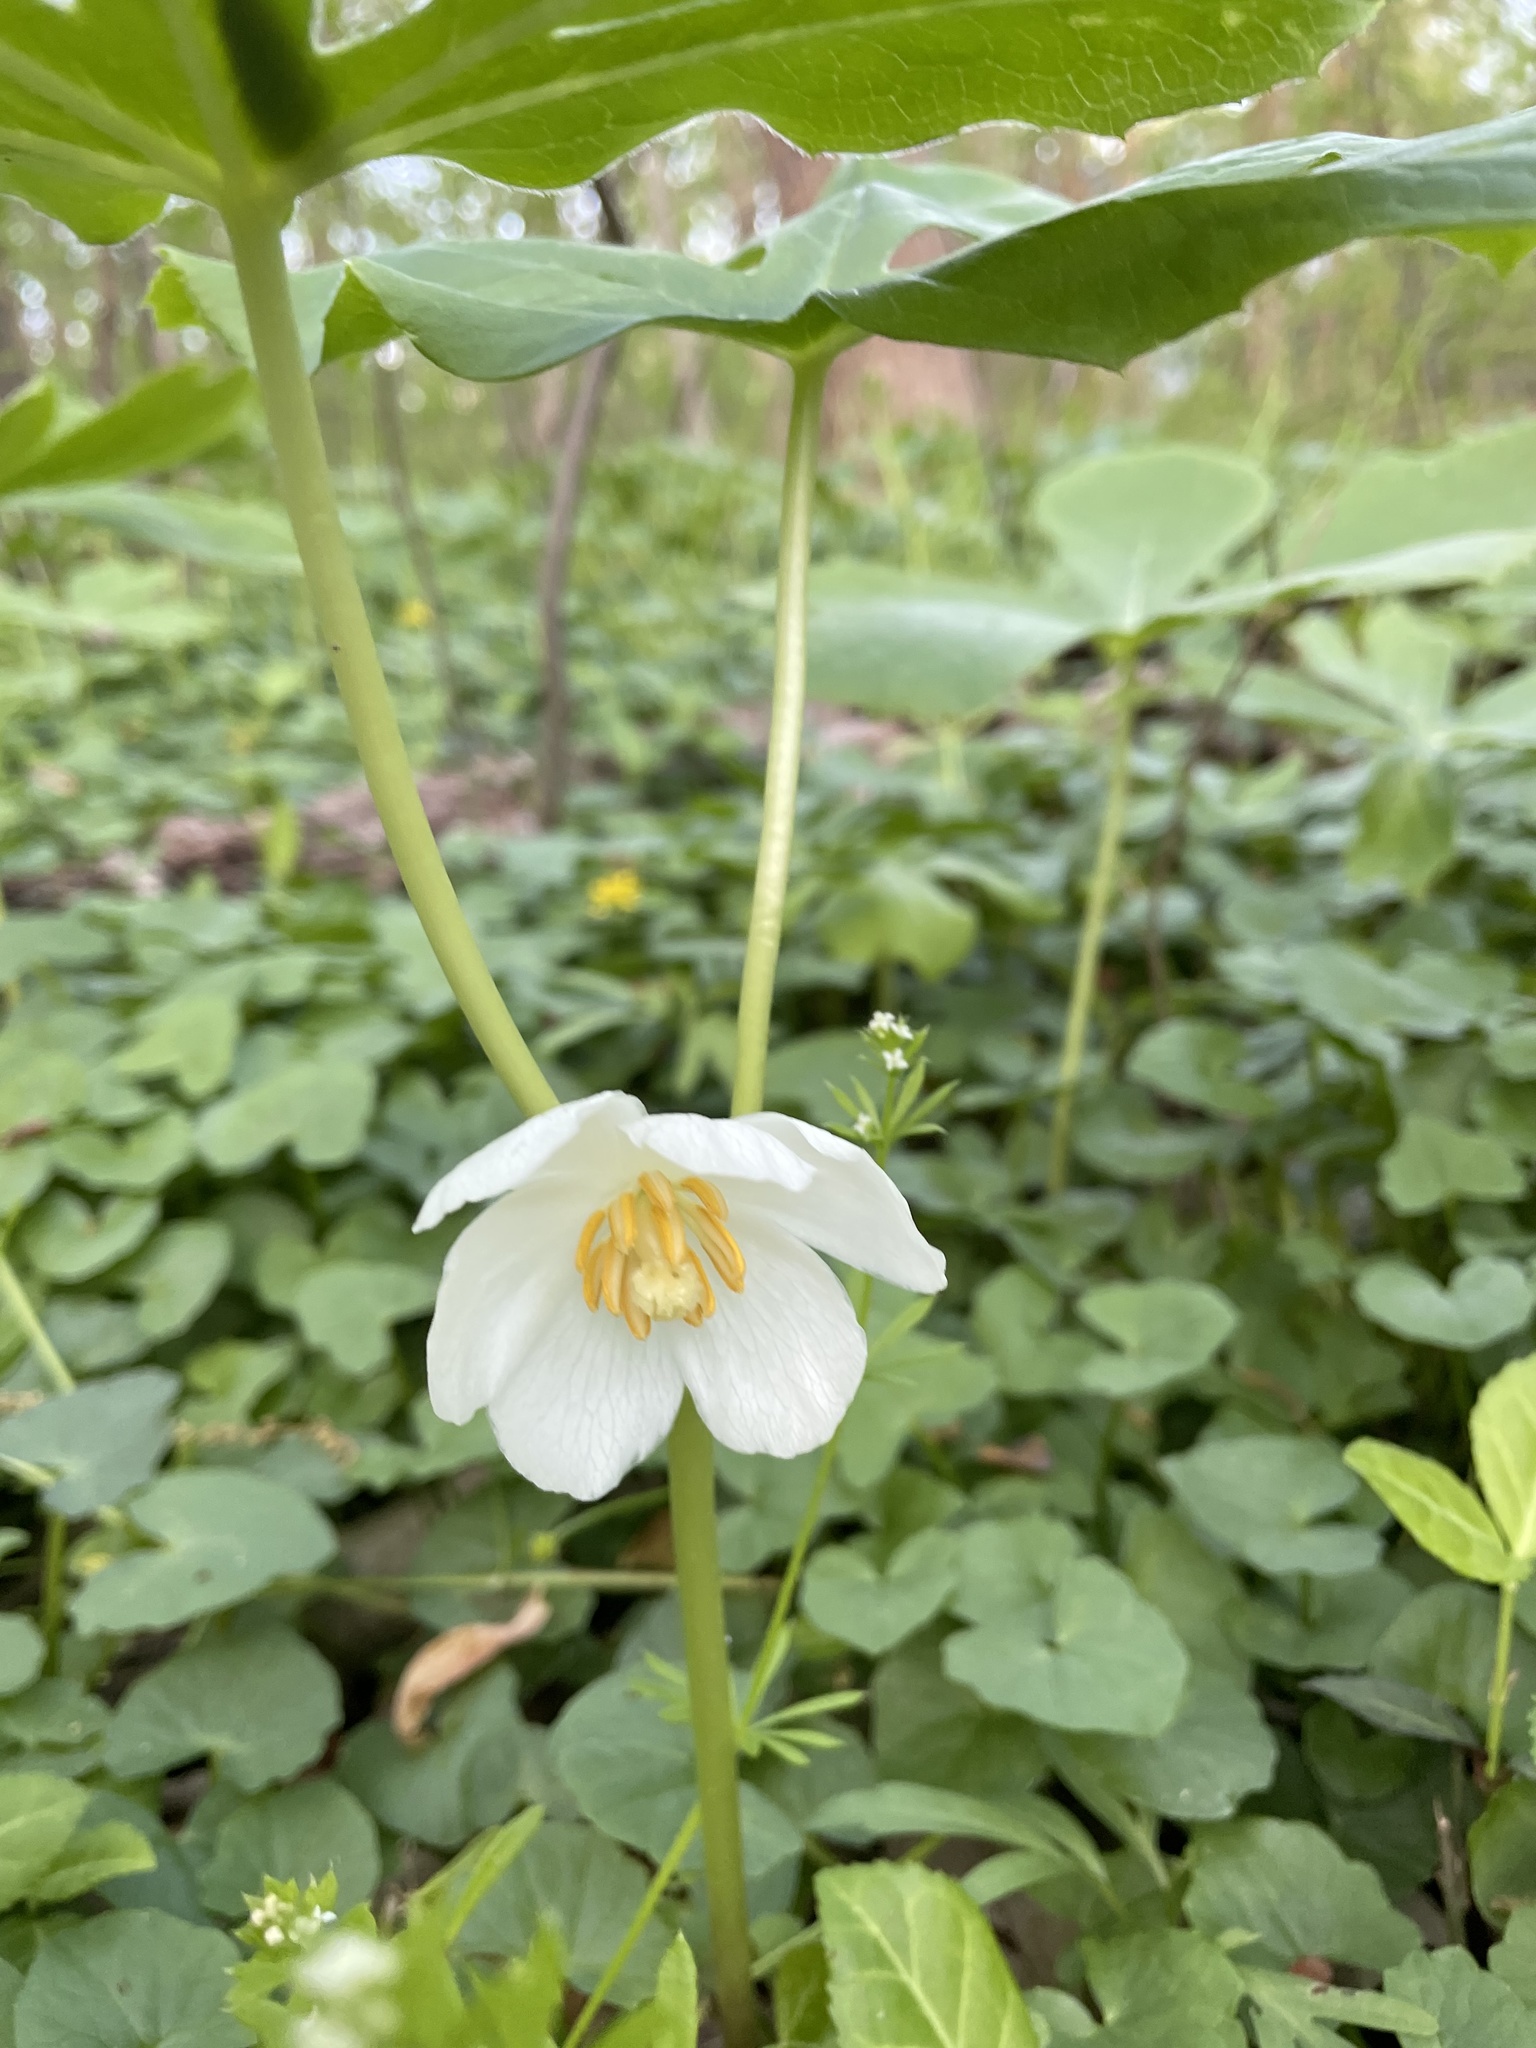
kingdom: Plantae
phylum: Tracheophyta
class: Magnoliopsida
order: Ranunculales
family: Berberidaceae
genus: Podophyllum
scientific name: Podophyllum peltatum
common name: Wild mandrake
